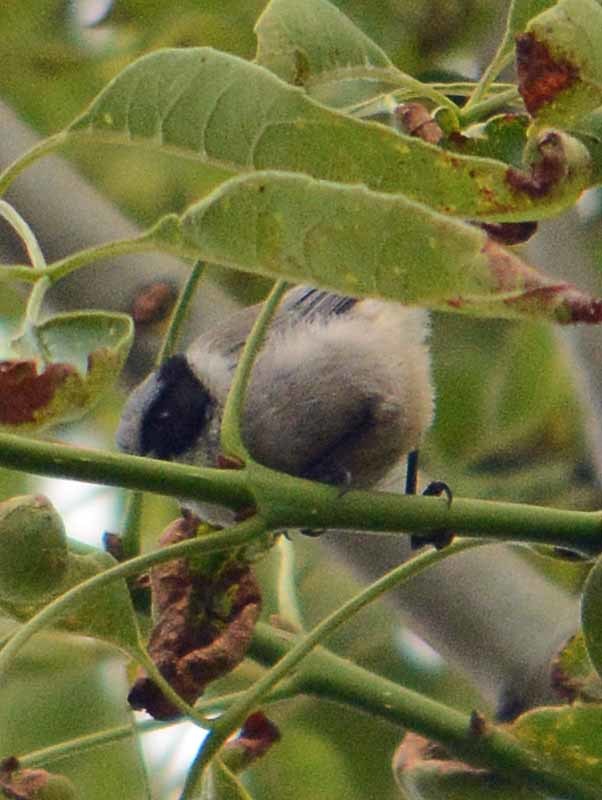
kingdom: Animalia
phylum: Chordata
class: Aves
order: Passeriformes
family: Aegithalidae
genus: Psaltriparus
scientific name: Psaltriparus minimus
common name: American bushtit
